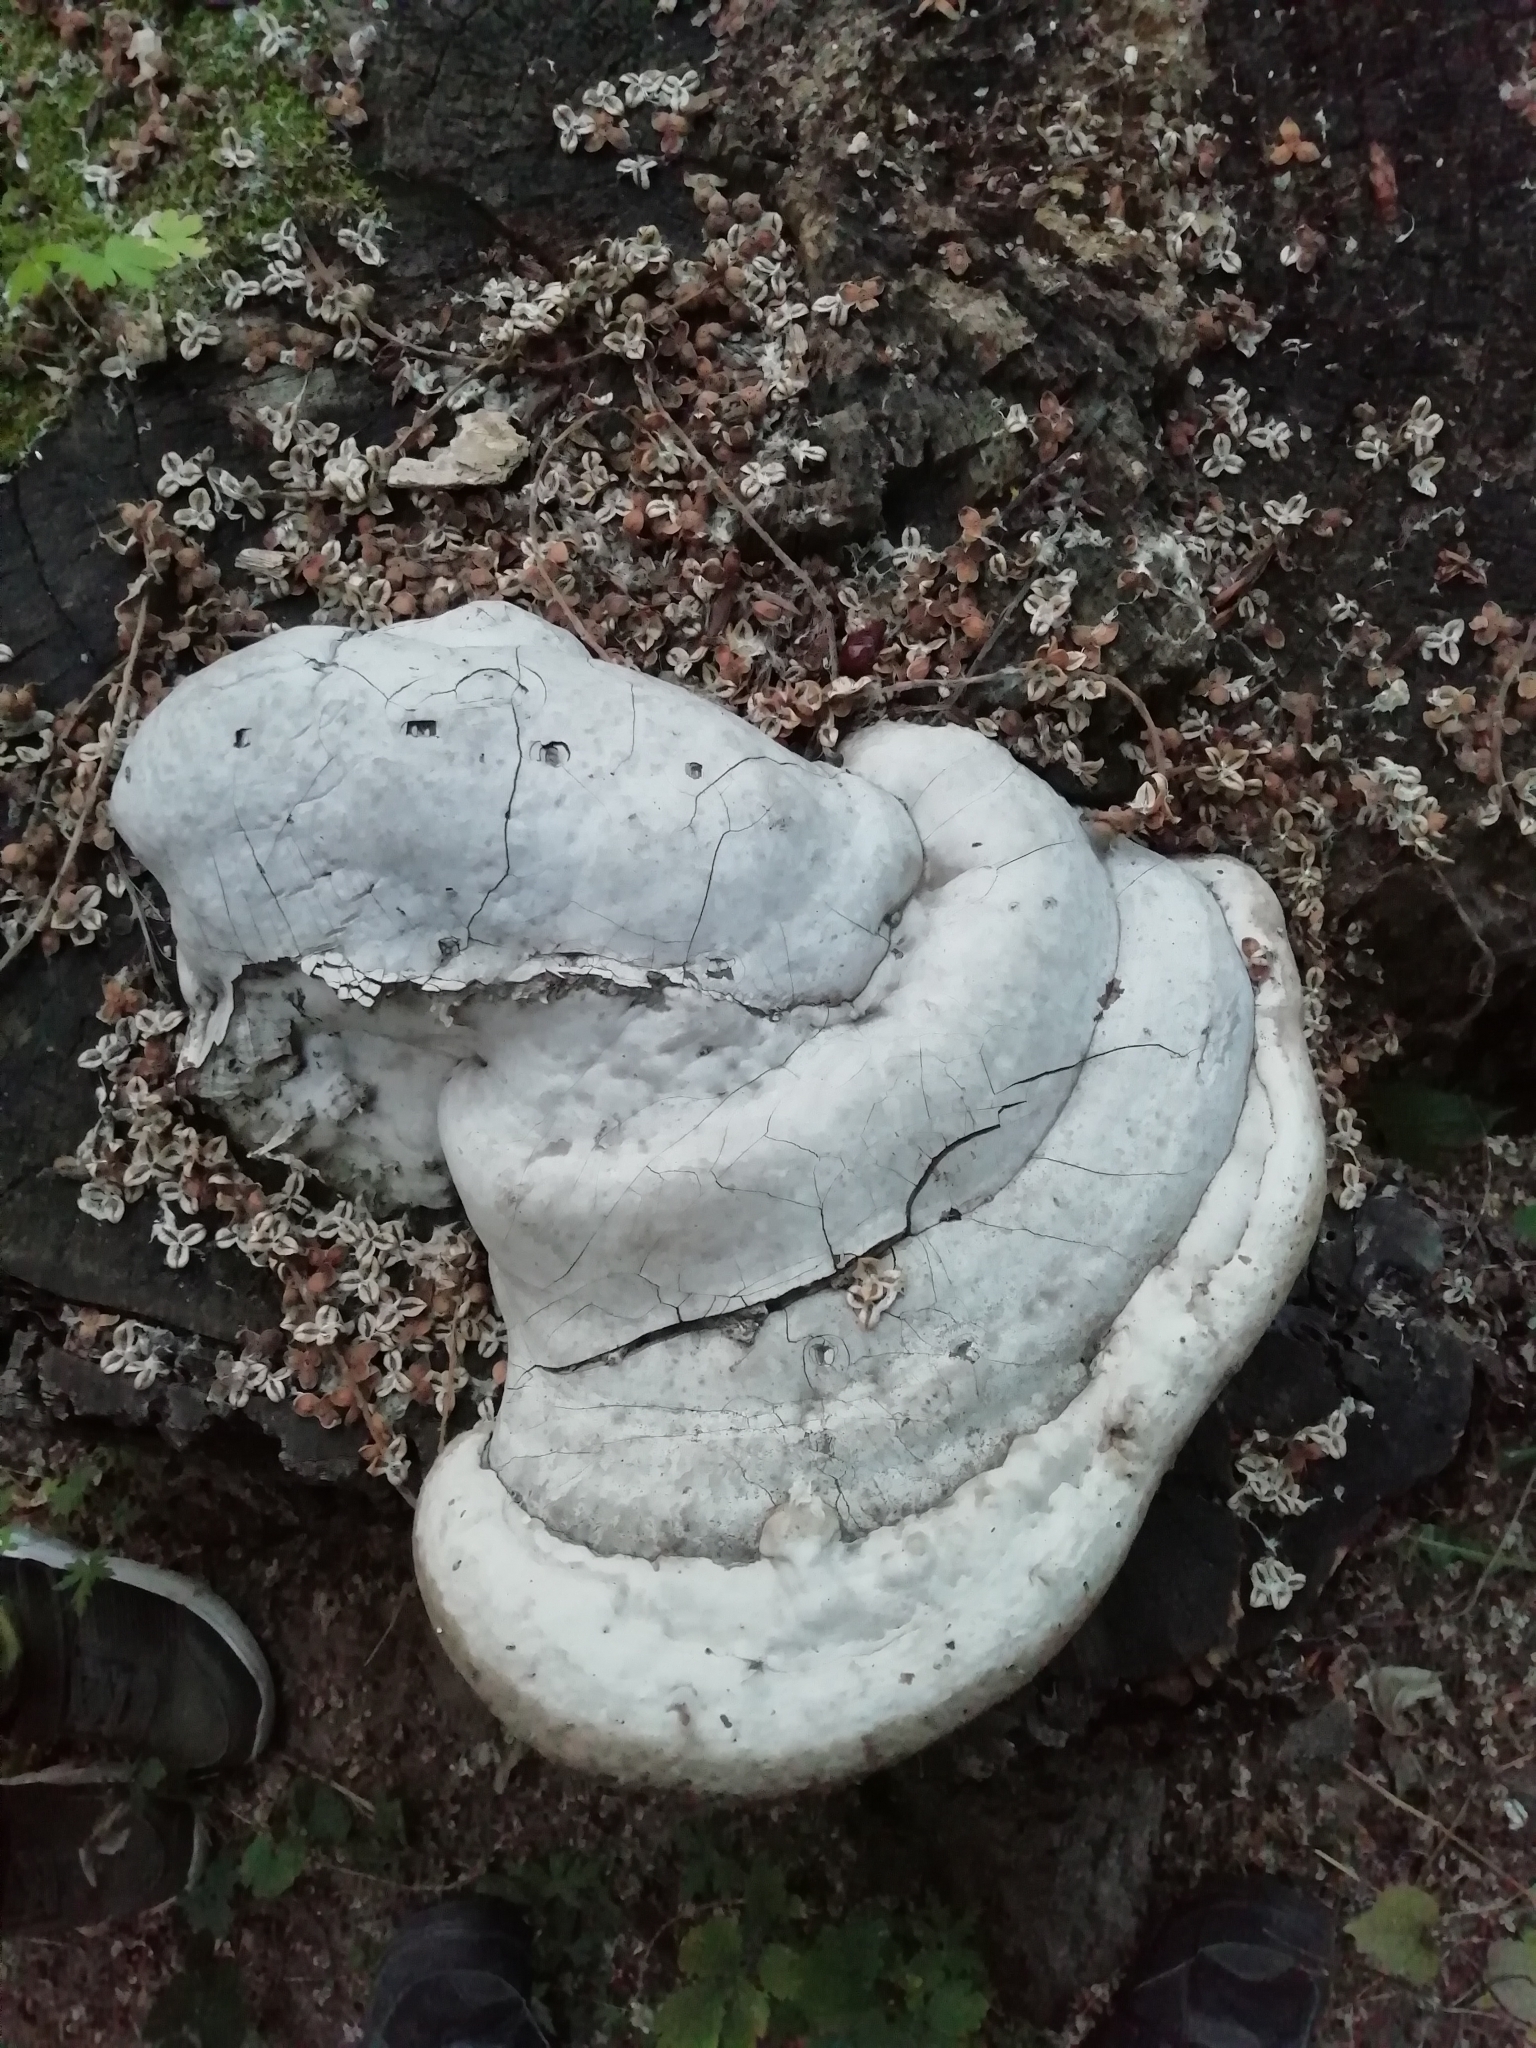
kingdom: Fungi
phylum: Basidiomycota
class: Agaricomycetes
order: Polyporales
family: Polyporaceae
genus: Fomes
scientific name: Fomes fomentarius
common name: Hoof fungus
